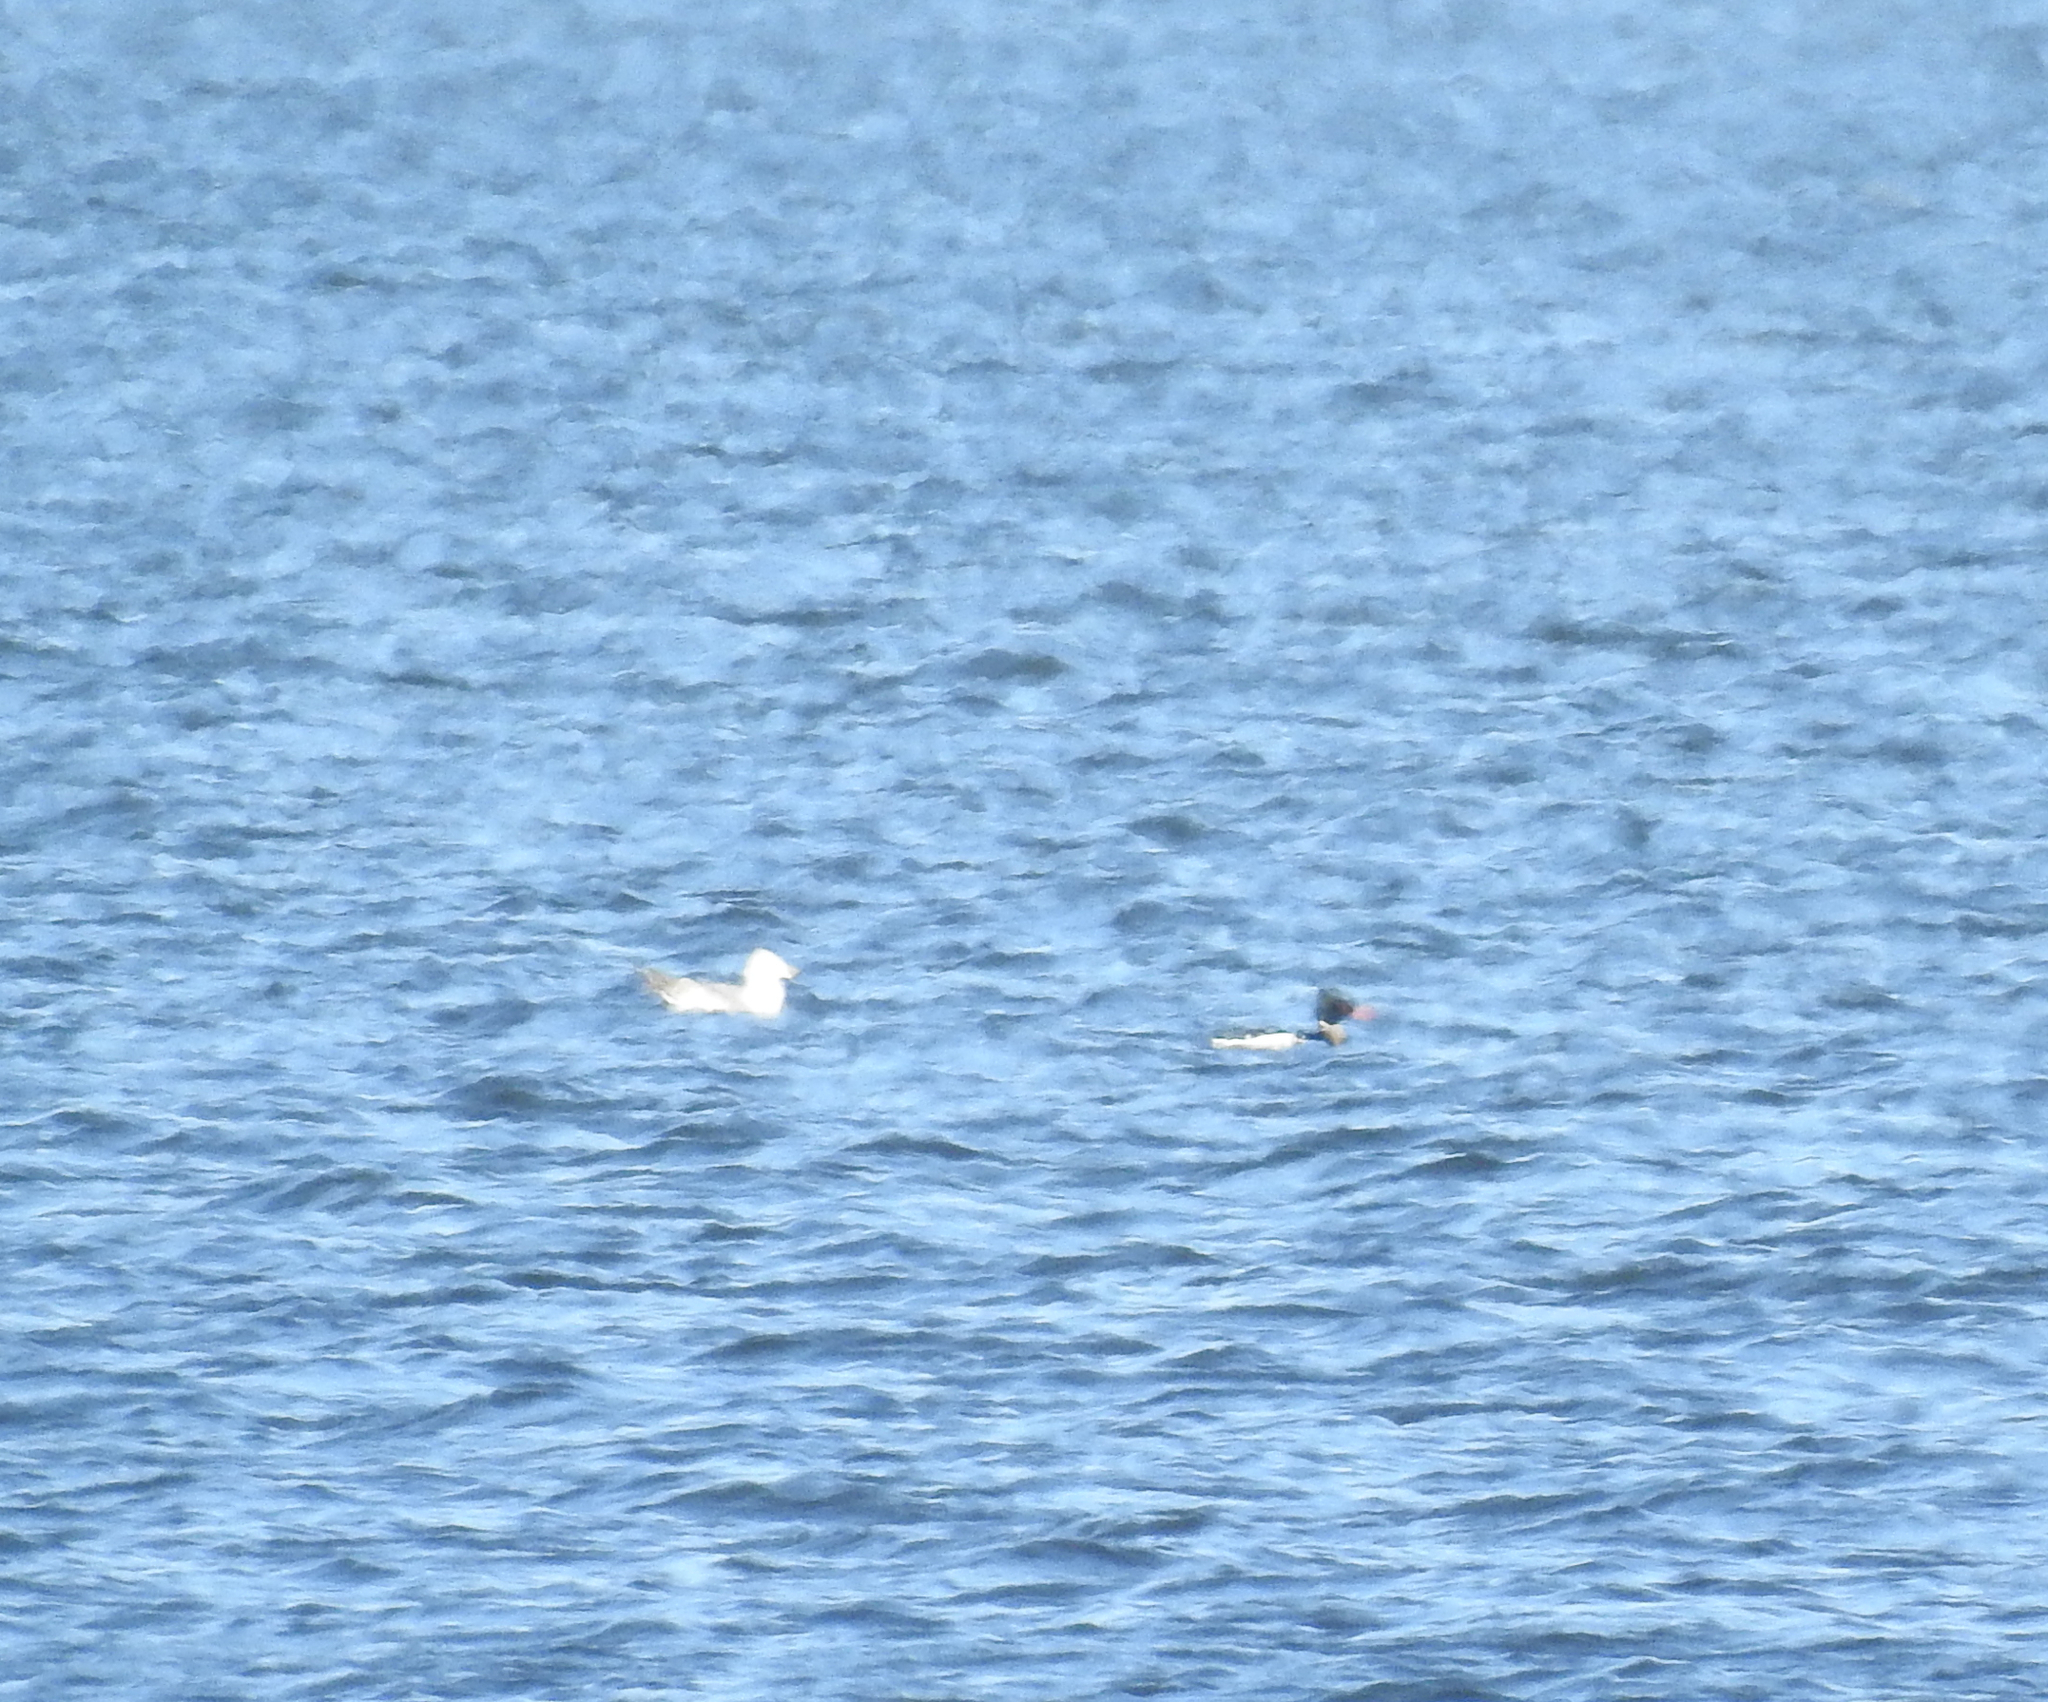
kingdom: Animalia
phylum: Chordata
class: Aves
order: Anseriformes
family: Anatidae
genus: Mergus
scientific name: Mergus serrator
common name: Red-breasted merganser
